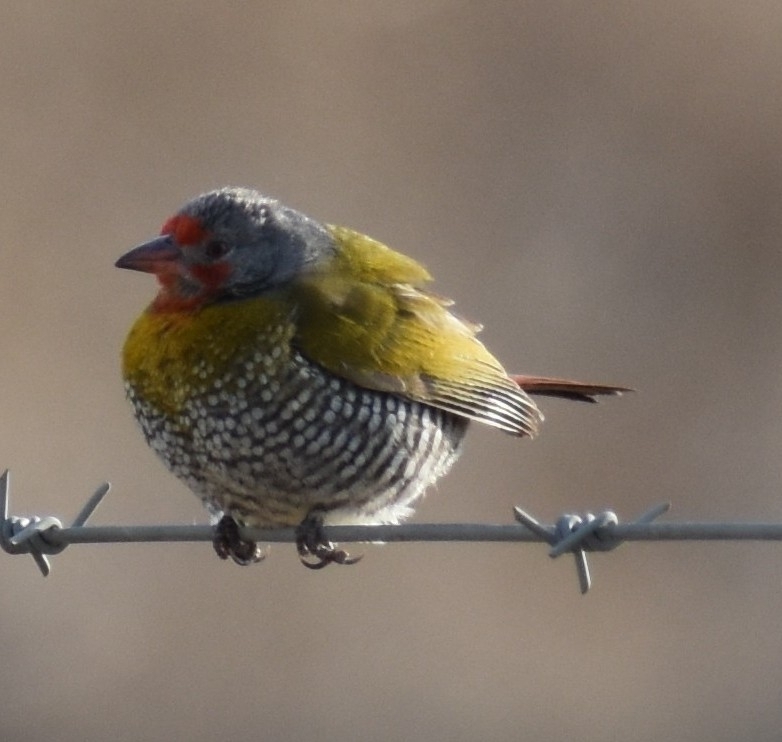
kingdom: Animalia
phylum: Chordata
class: Aves
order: Passeriformes
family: Estrildidae
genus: Pytilia
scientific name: Pytilia melba
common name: Green-winged pytilia
